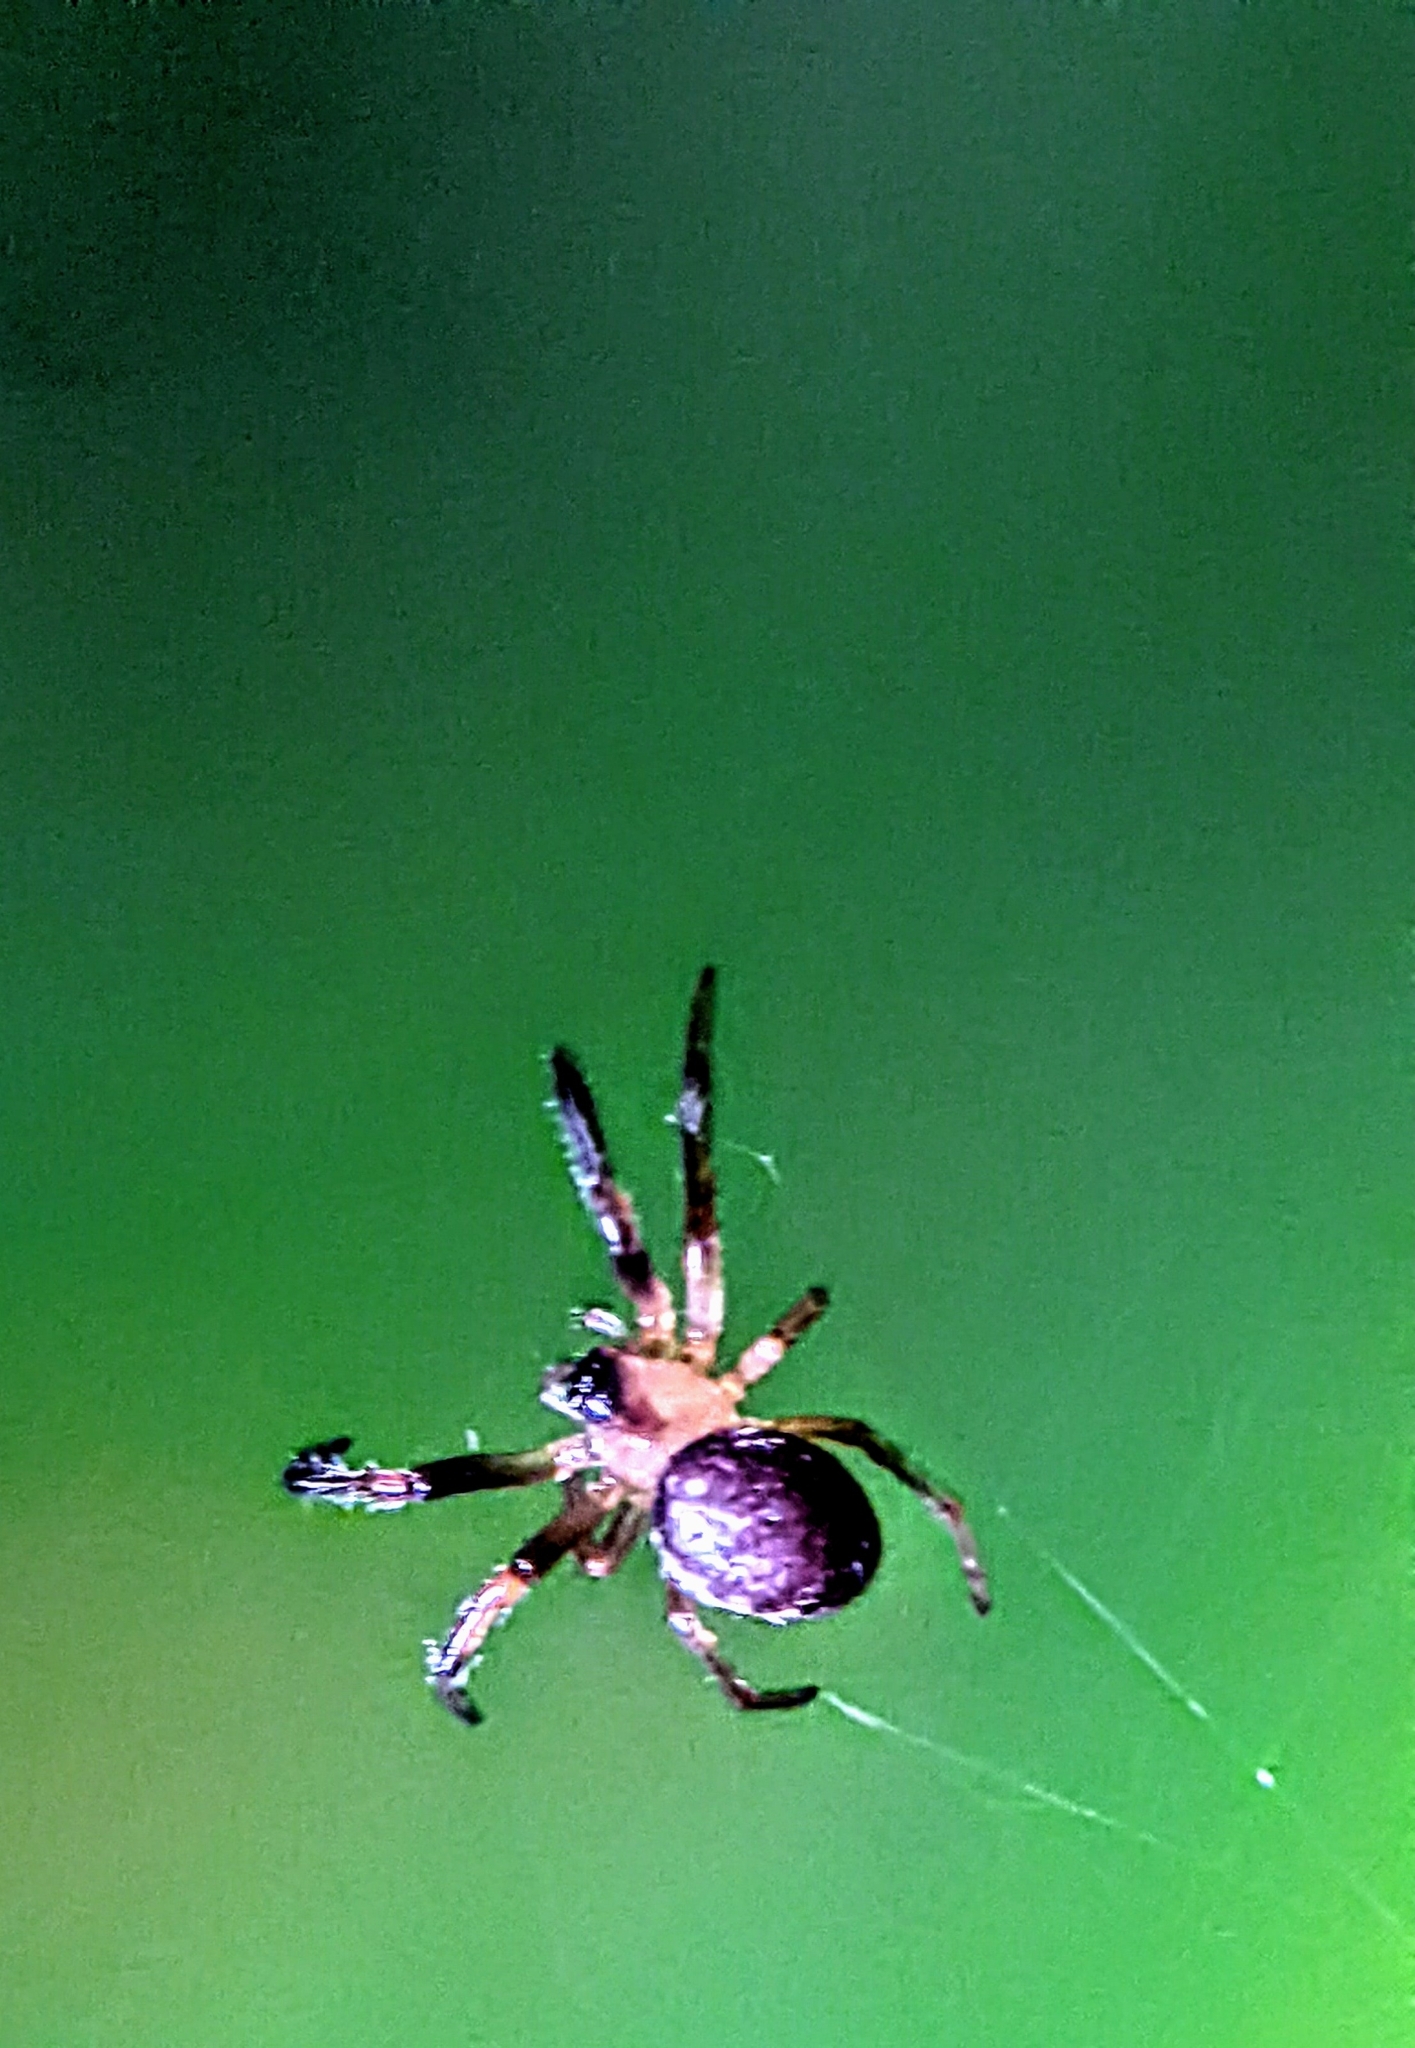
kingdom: Animalia
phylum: Arthropoda
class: Arachnida
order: Araneae
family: Tetragnathidae
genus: Guizygiella
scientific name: Guizygiella nadleri
